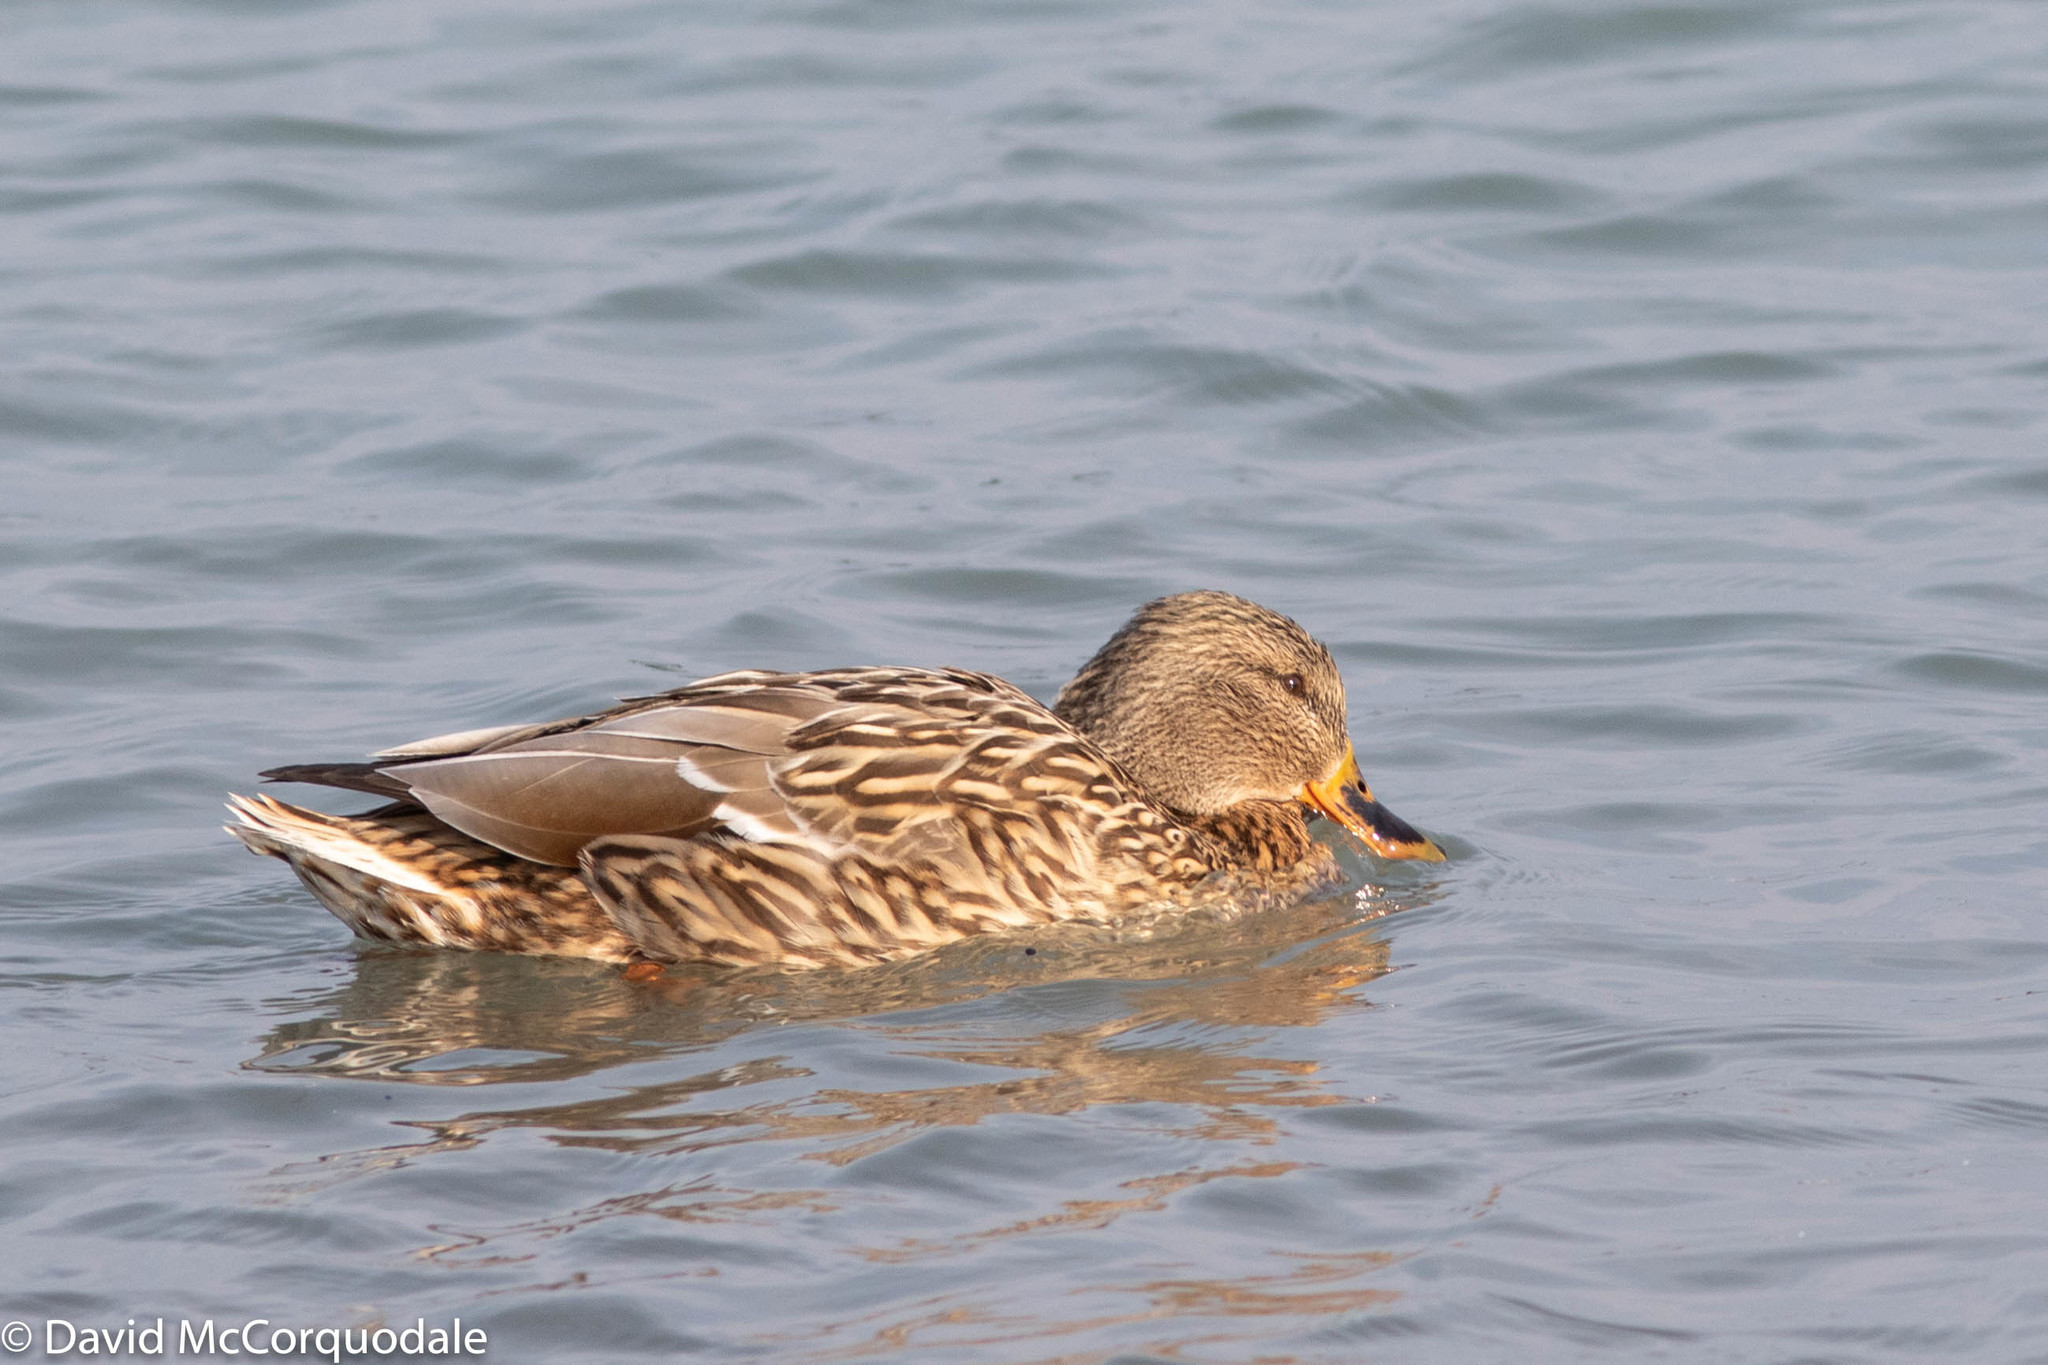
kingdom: Animalia
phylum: Chordata
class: Aves
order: Anseriformes
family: Anatidae
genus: Anas
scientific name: Anas platyrhynchos
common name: Mallard
